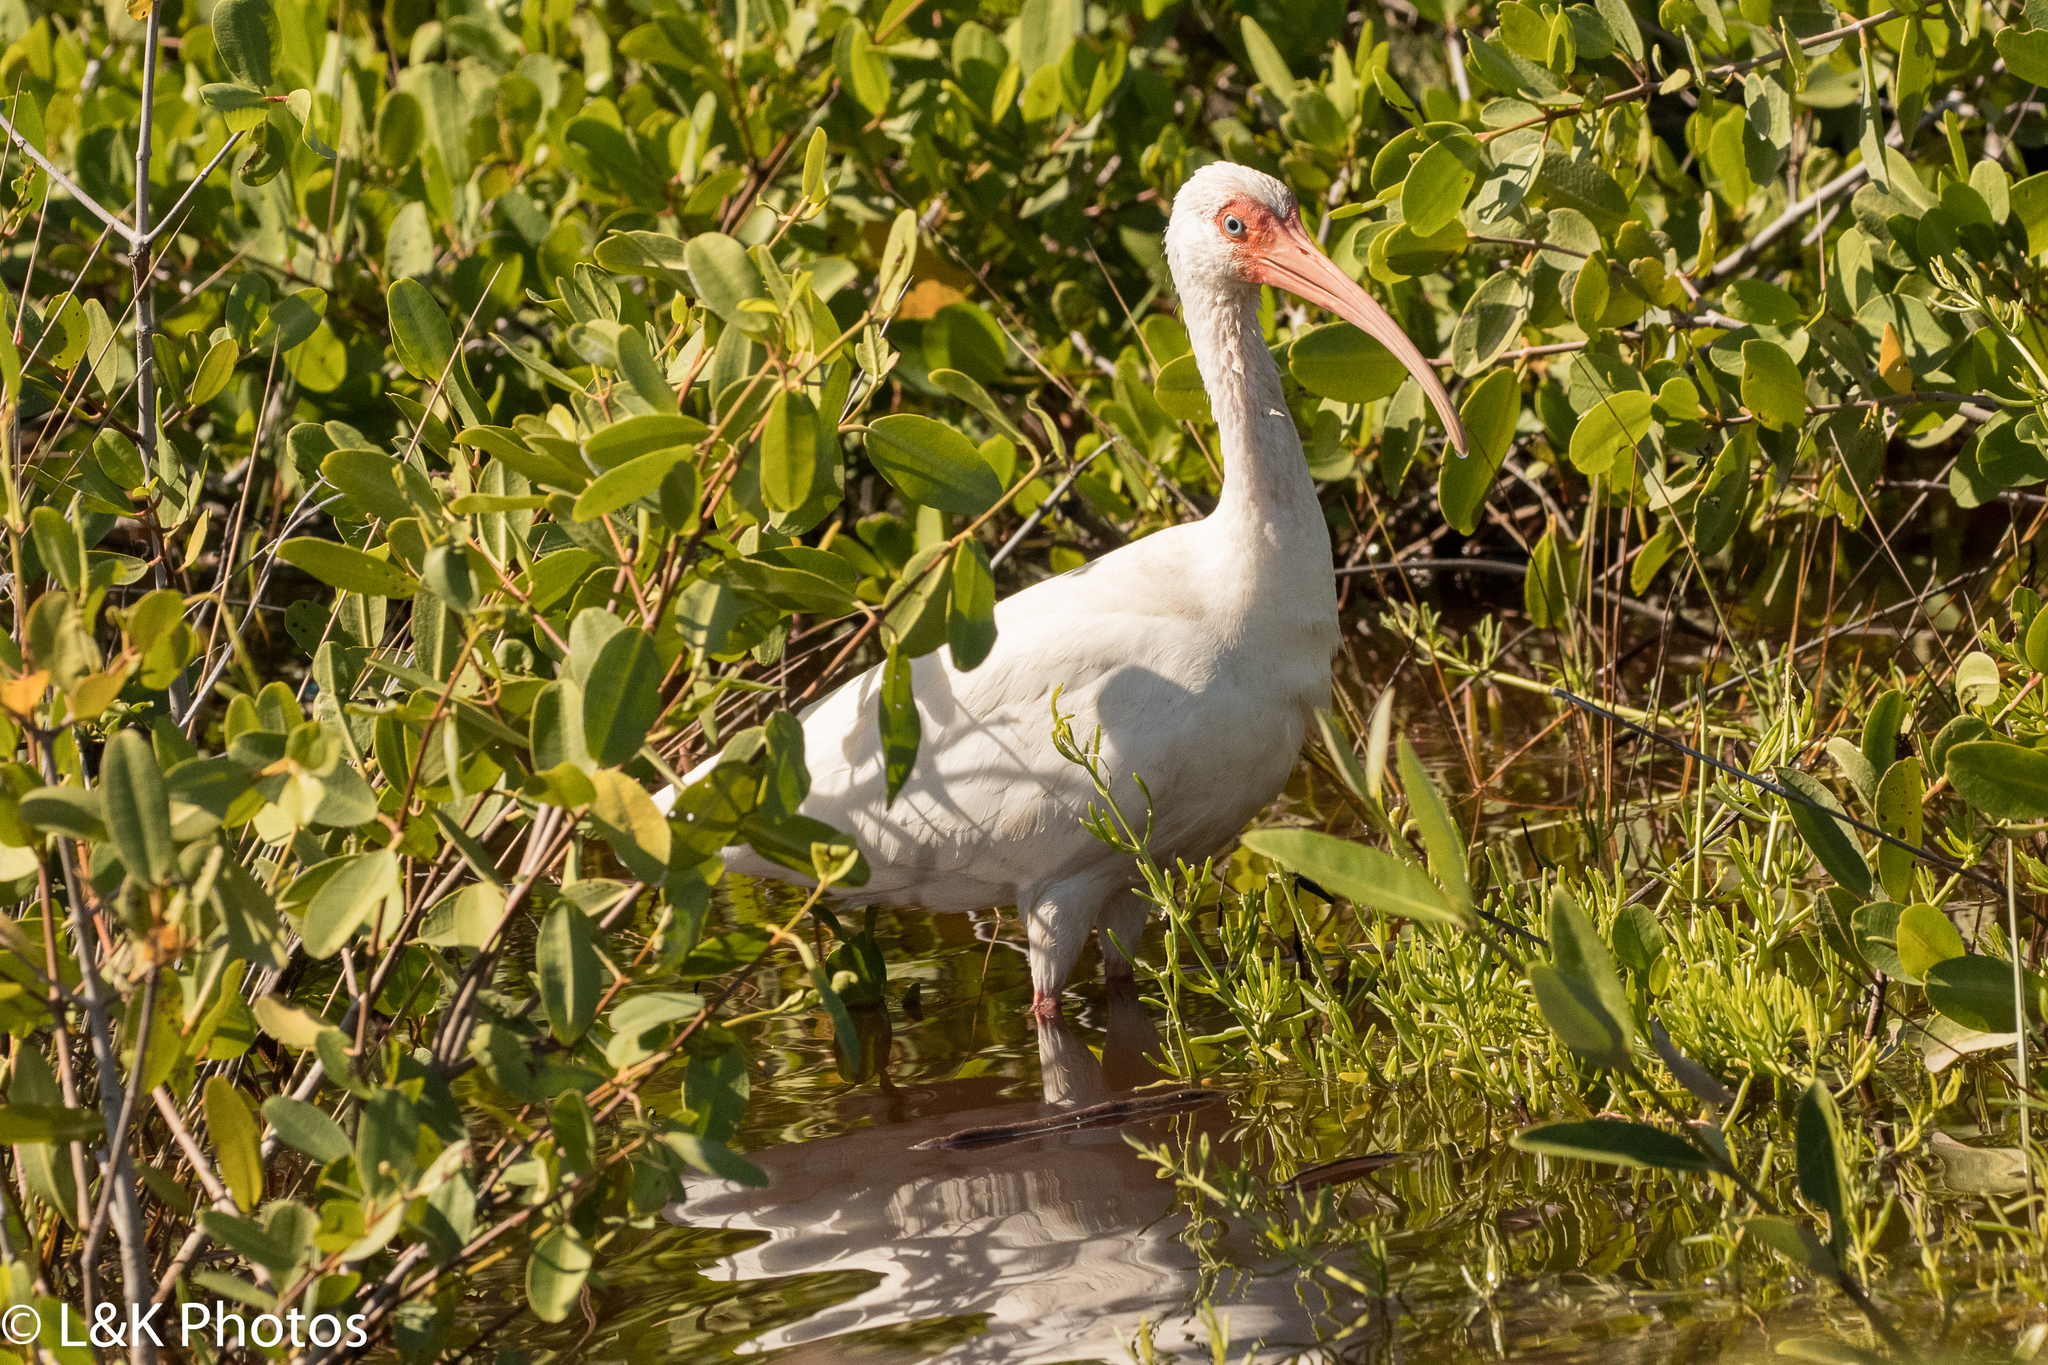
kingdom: Animalia
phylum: Chordata
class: Aves
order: Pelecaniformes
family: Threskiornithidae
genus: Eudocimus
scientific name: Eudocimus albus
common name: White ibis
